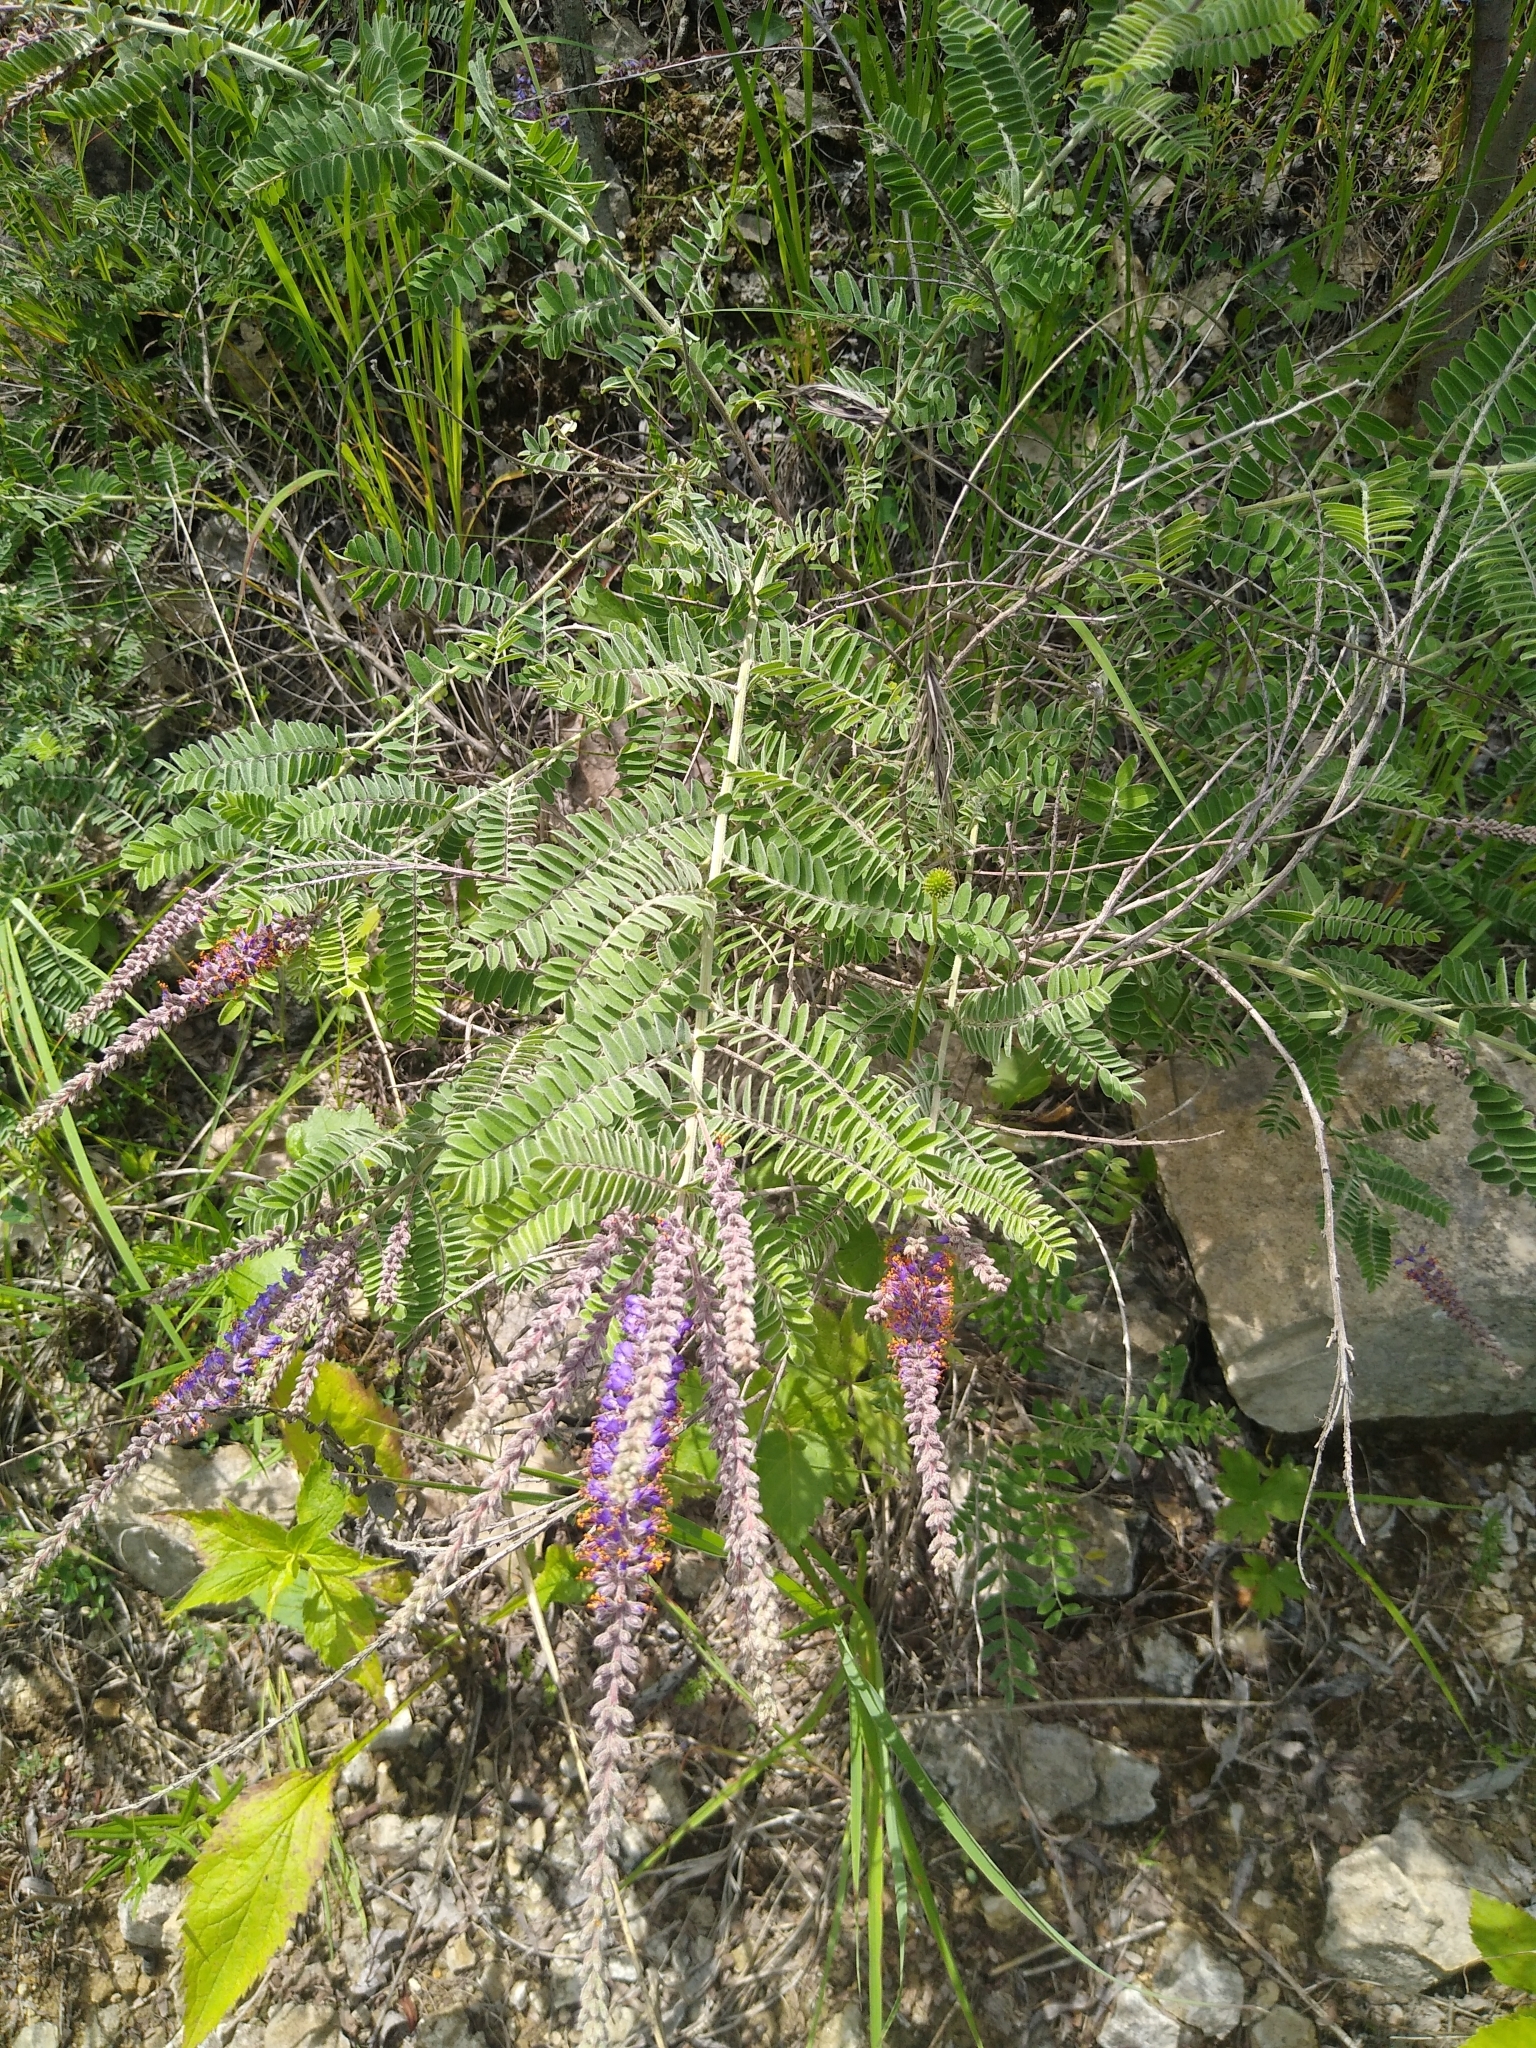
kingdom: Plantae
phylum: Tracheophyta
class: Magnoliopsida
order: Fabales
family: Fabaceae
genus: Amorpha
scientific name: Amorpha canescens
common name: Leadplant
